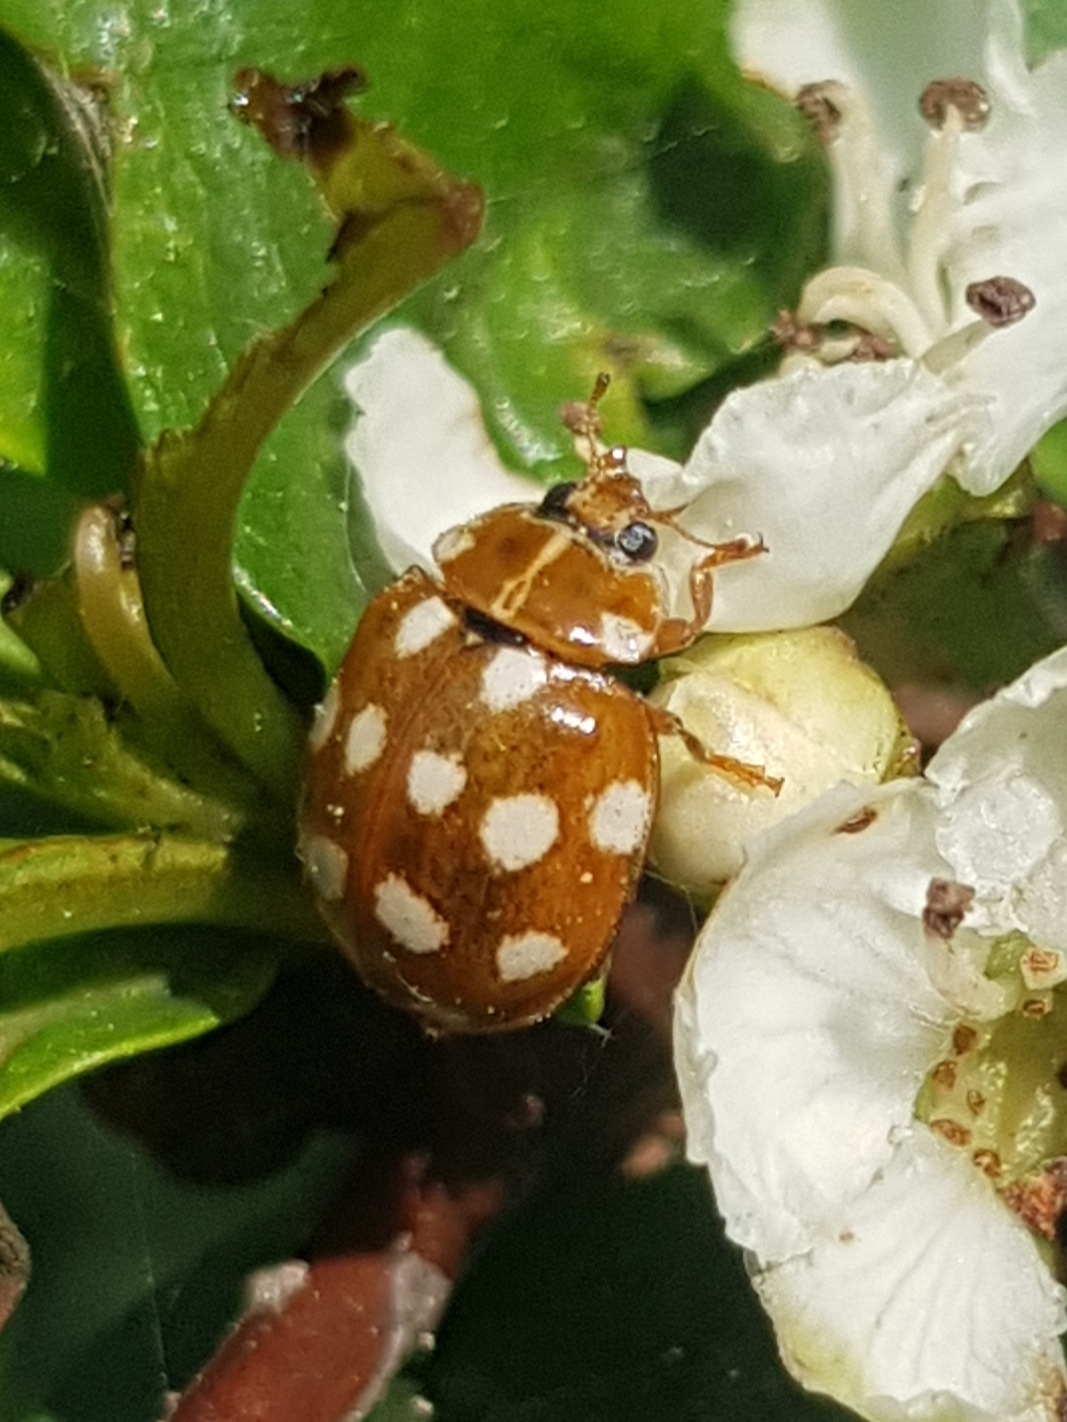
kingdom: Animalia
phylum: Arthropoda
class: Insecta
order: Coleoptera
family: Coccinellidae
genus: Calvia
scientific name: Calvia quatuordecimguttata
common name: Cream-spot ladybird
